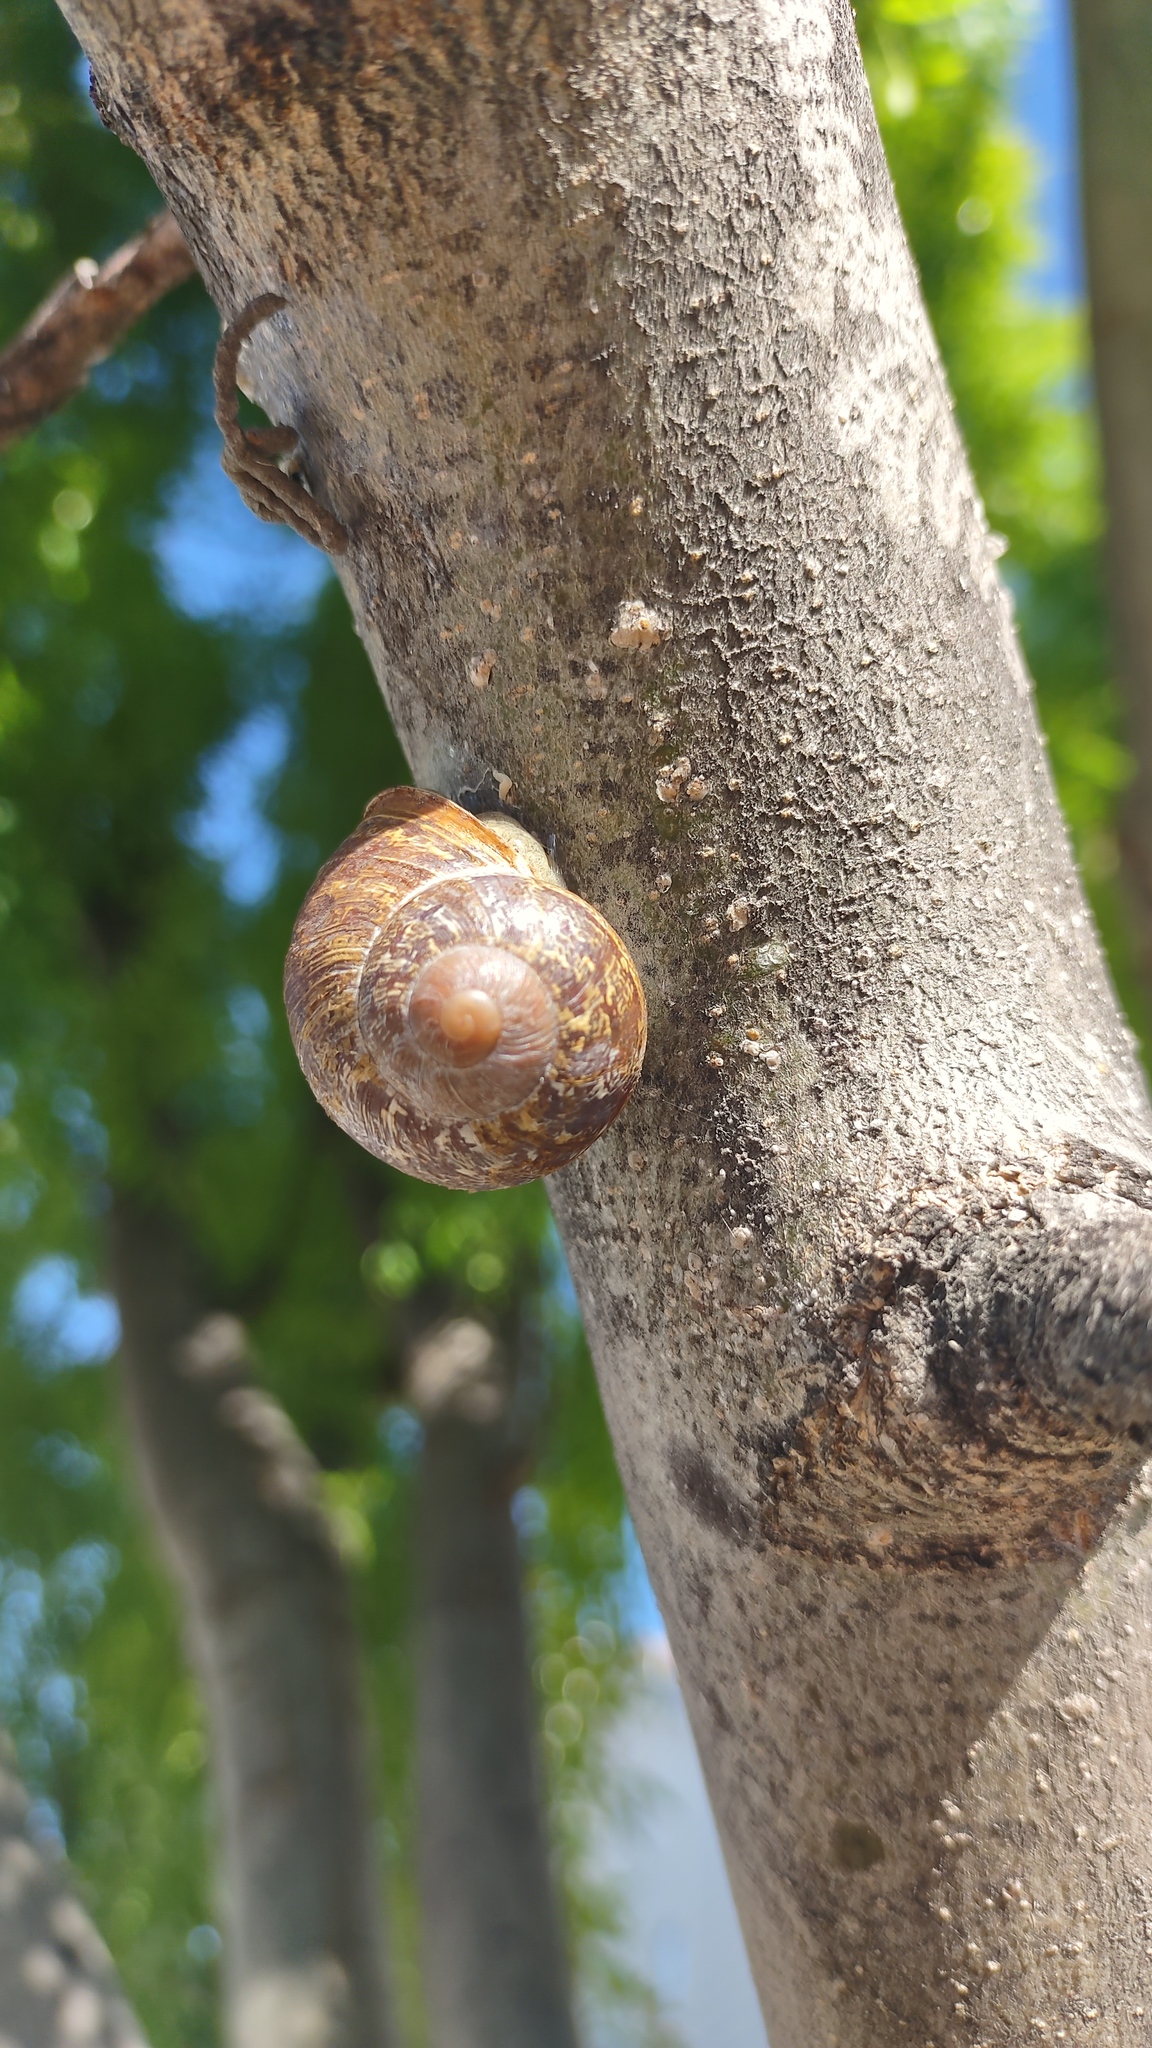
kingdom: Animalia
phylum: Mollusca
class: Gastropoda
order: Stylommatophora
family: Helicidae
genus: Cornu
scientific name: Cornu aspersum
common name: Brown garden snail
